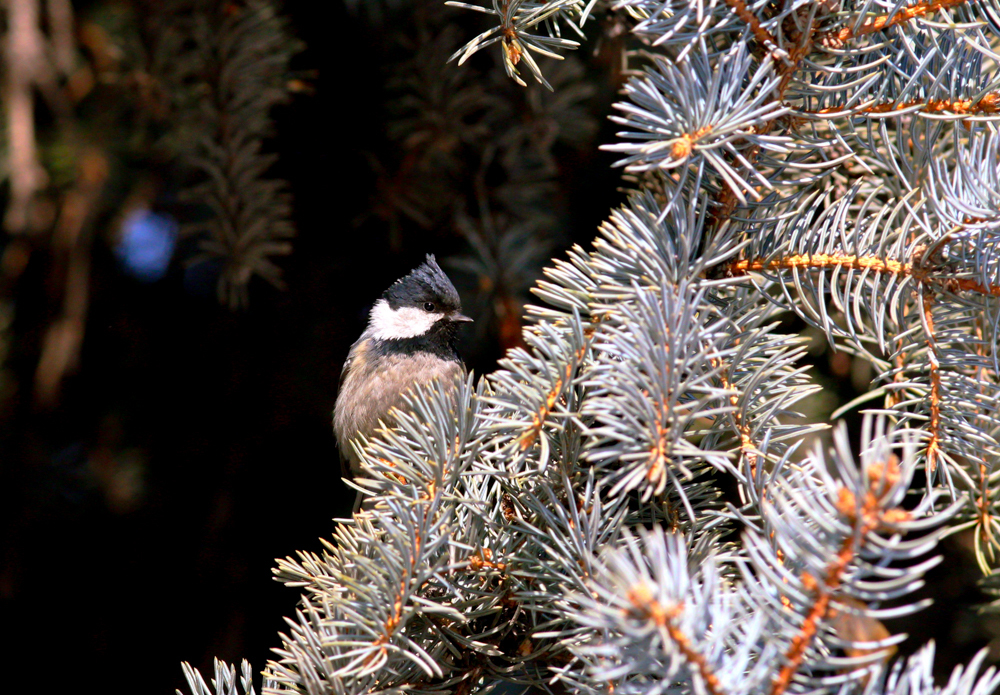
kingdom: Animalia
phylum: Chordata
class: Aves
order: Passeriformes
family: Paridae
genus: Periparus
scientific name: Periparus ater
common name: Coal tit
